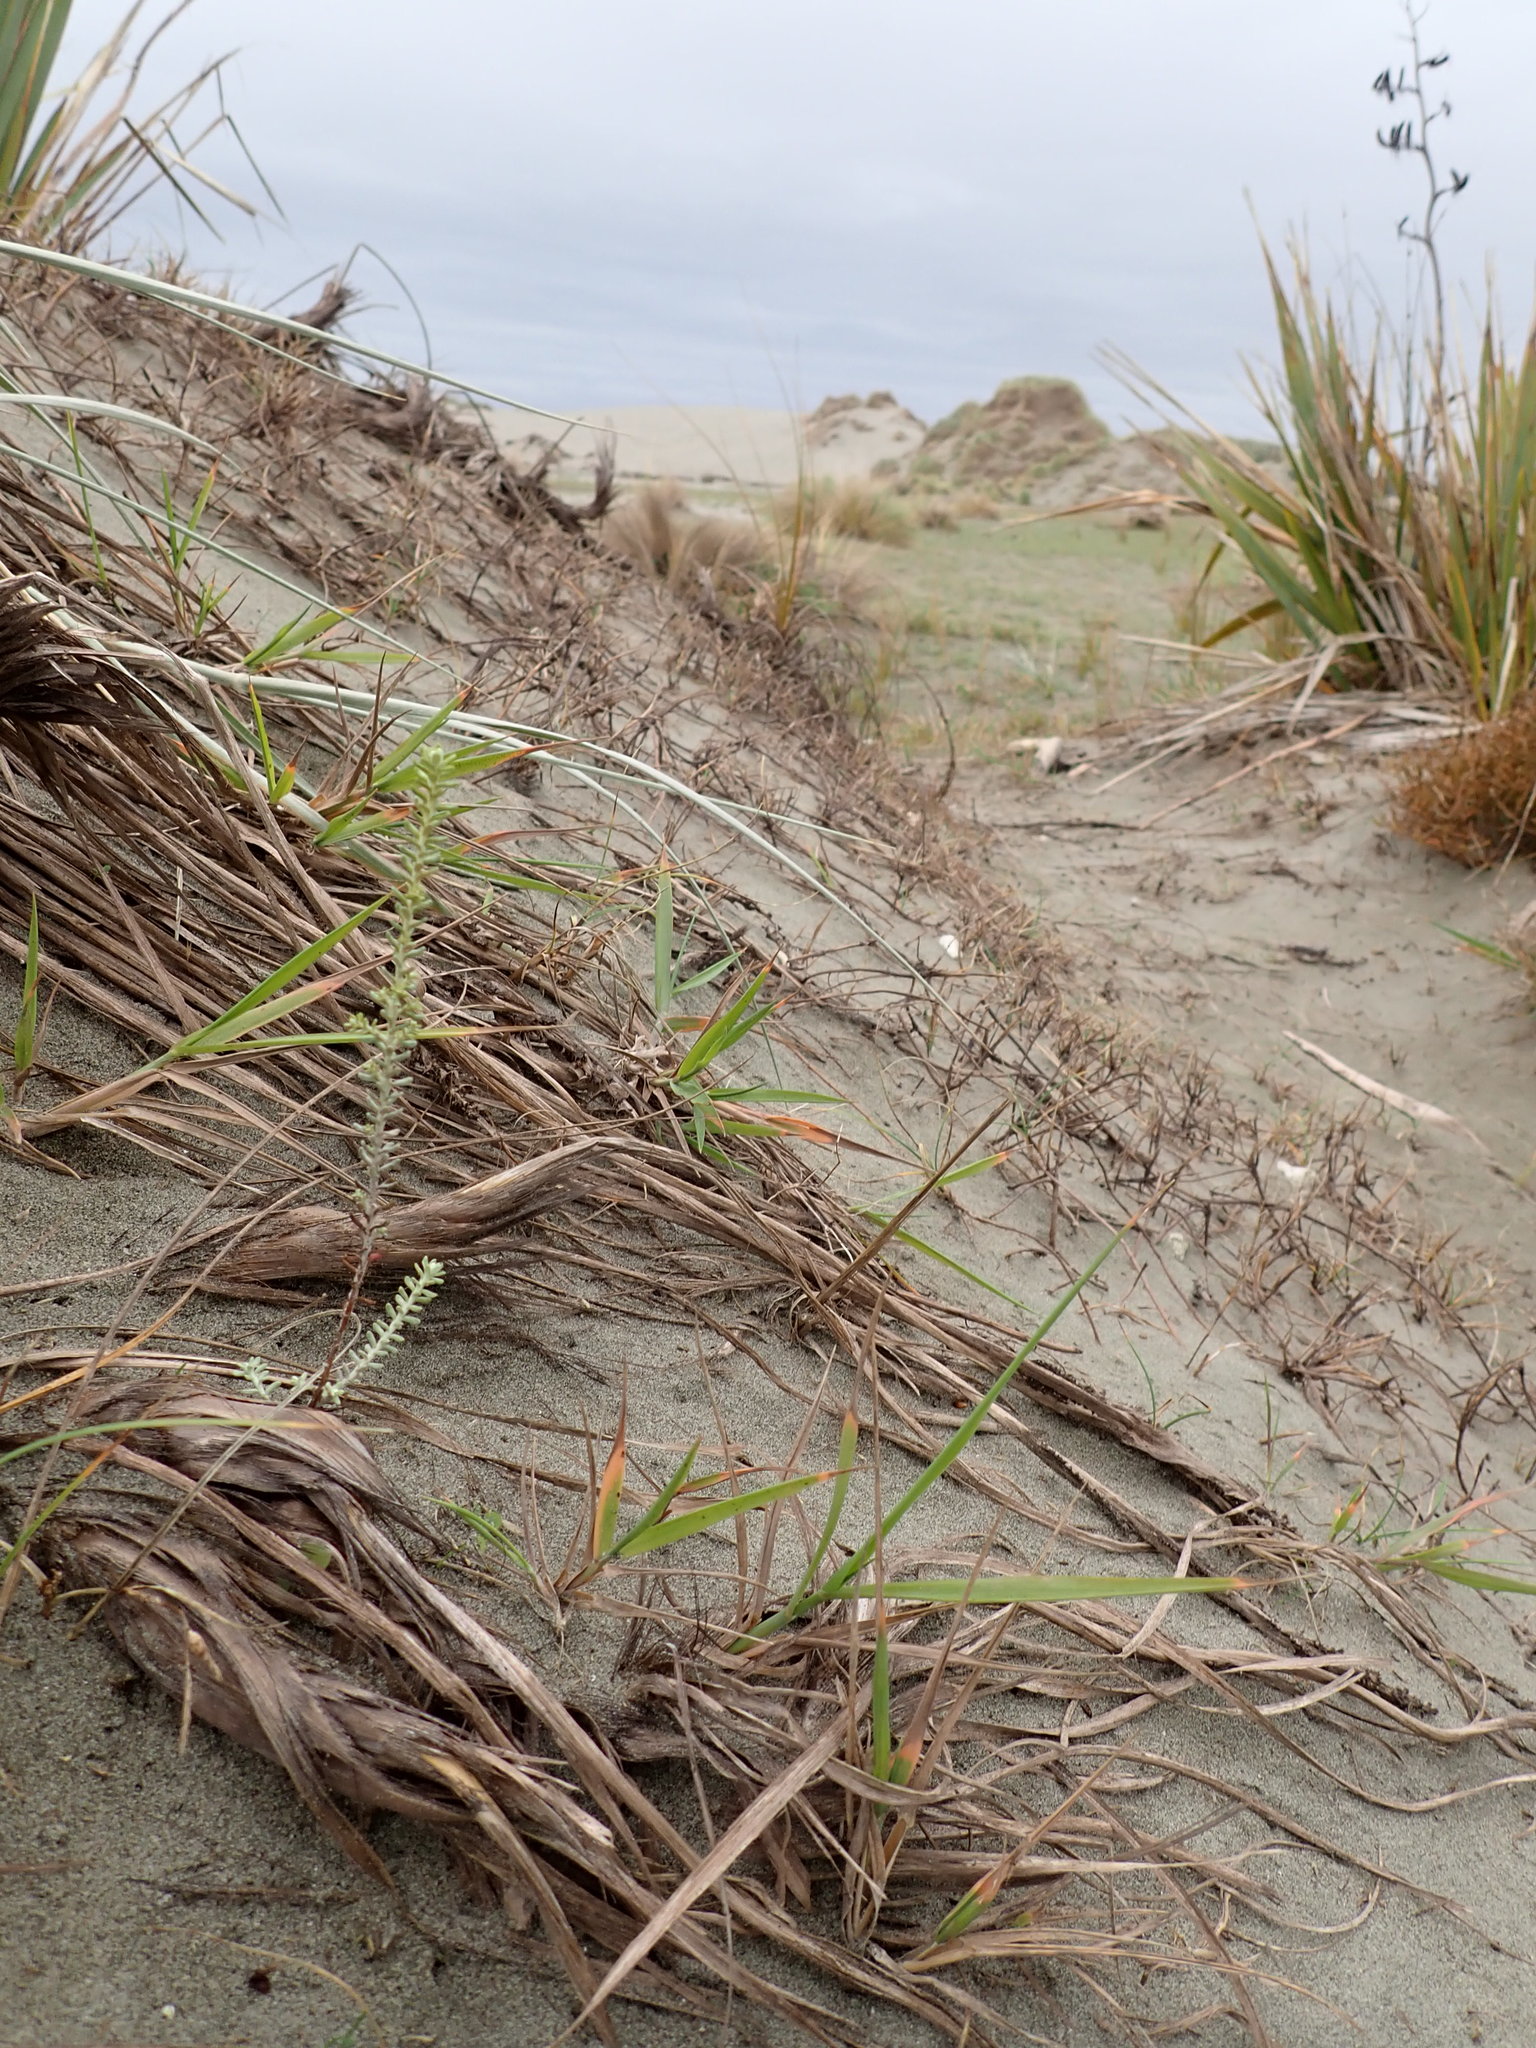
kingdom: Plantae
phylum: Tracheophyta
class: Magnoliopsida
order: Asterales
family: Asteraceae
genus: Ozothamnus
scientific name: Ozothamnus leptophyllus
